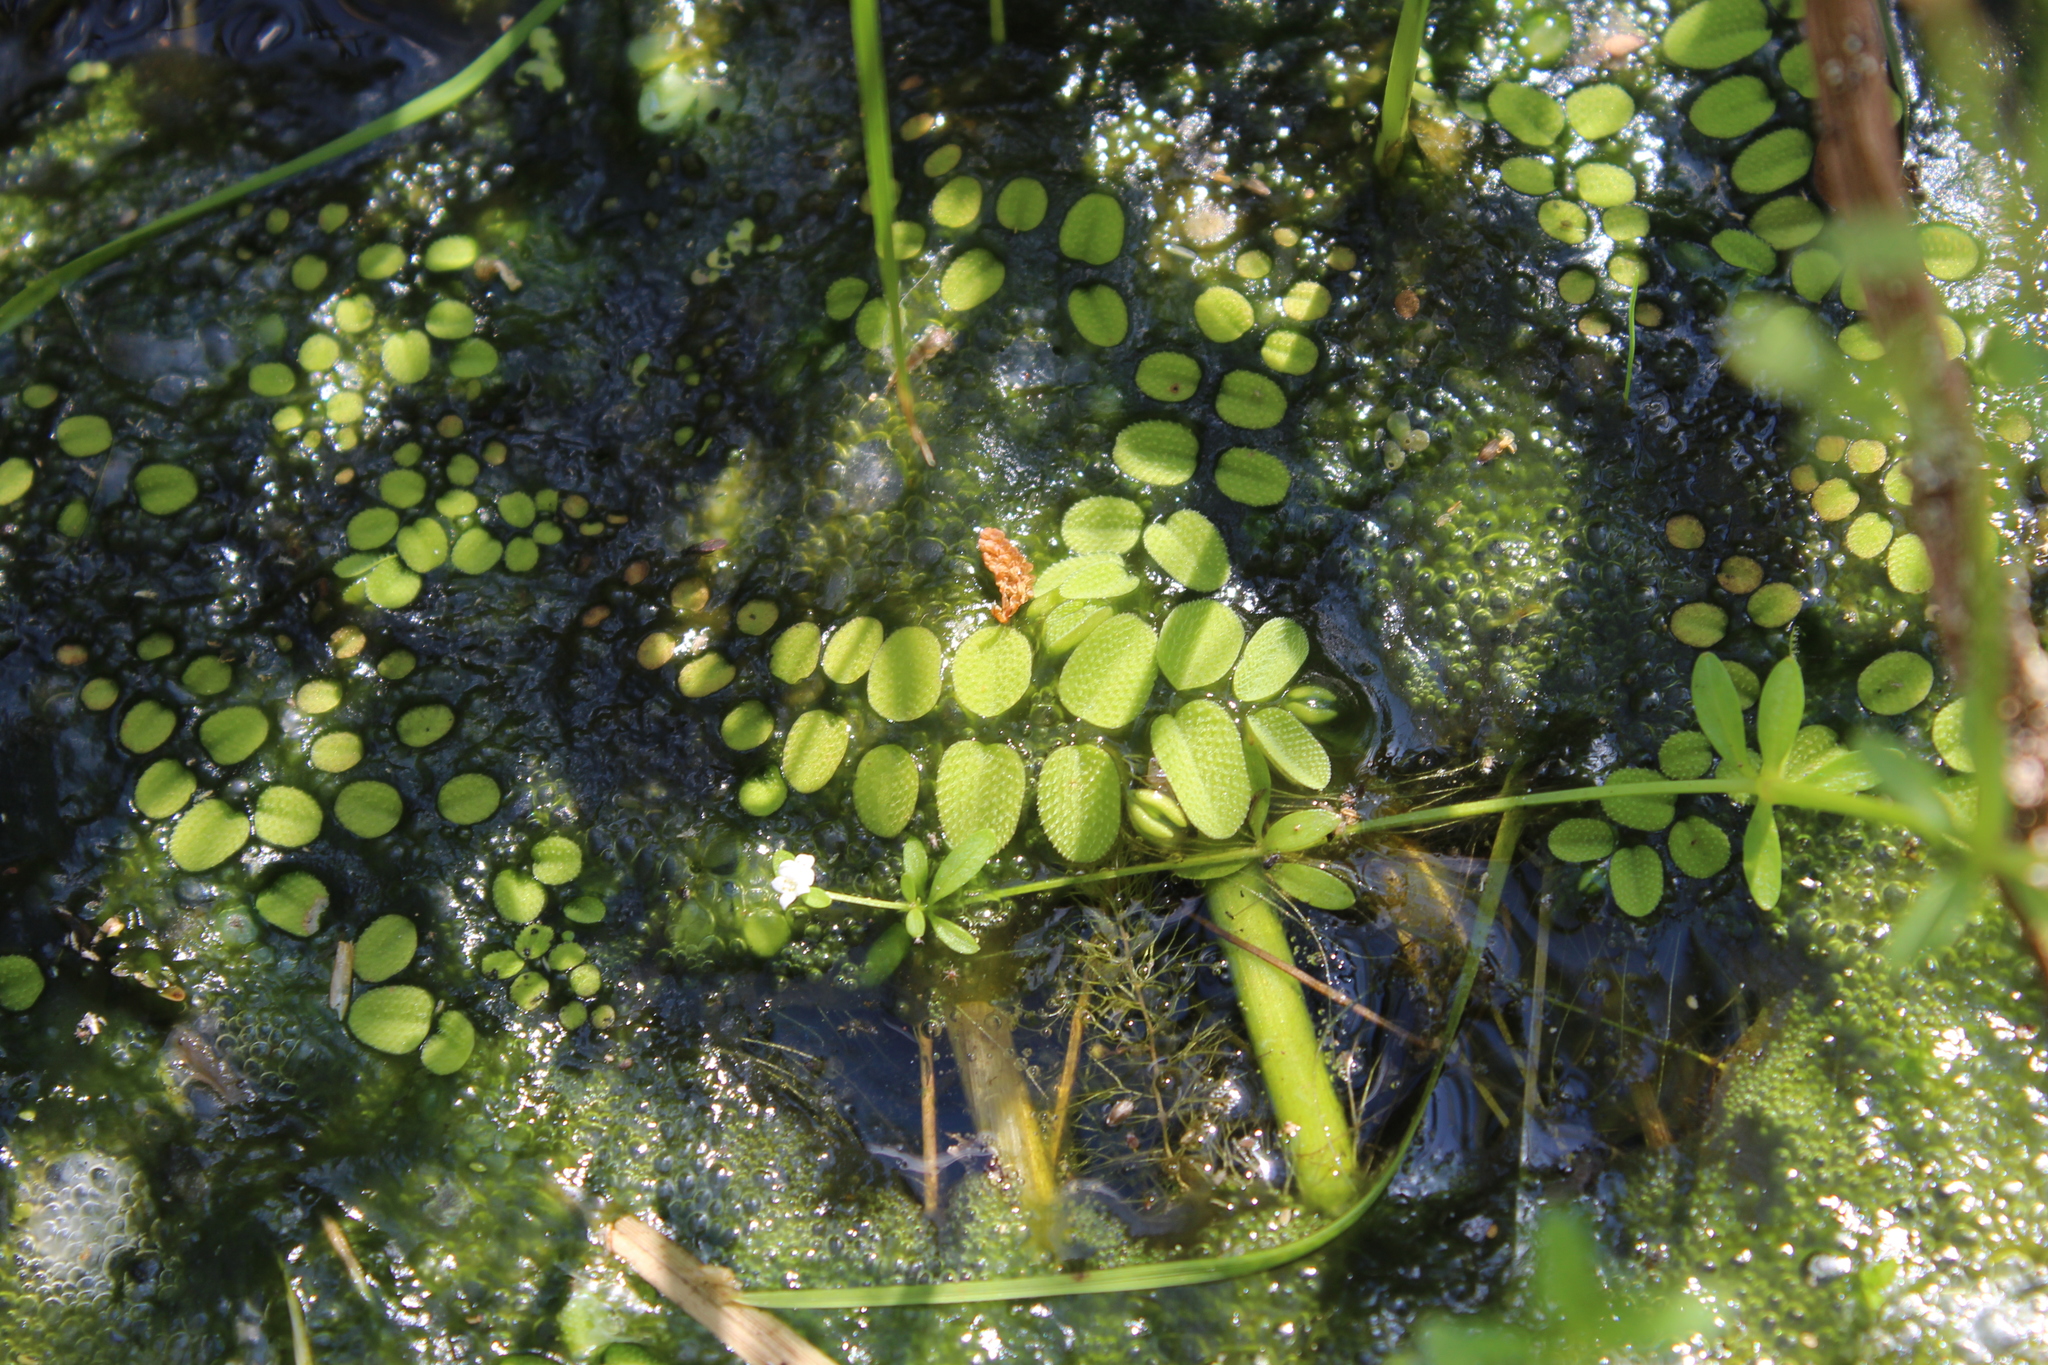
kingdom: Plantae
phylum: Tracheophyta
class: Polypodiopsida
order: Salviniales
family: Salviniaceae
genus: Salvinia
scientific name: Salvinia natans
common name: Floating fern
